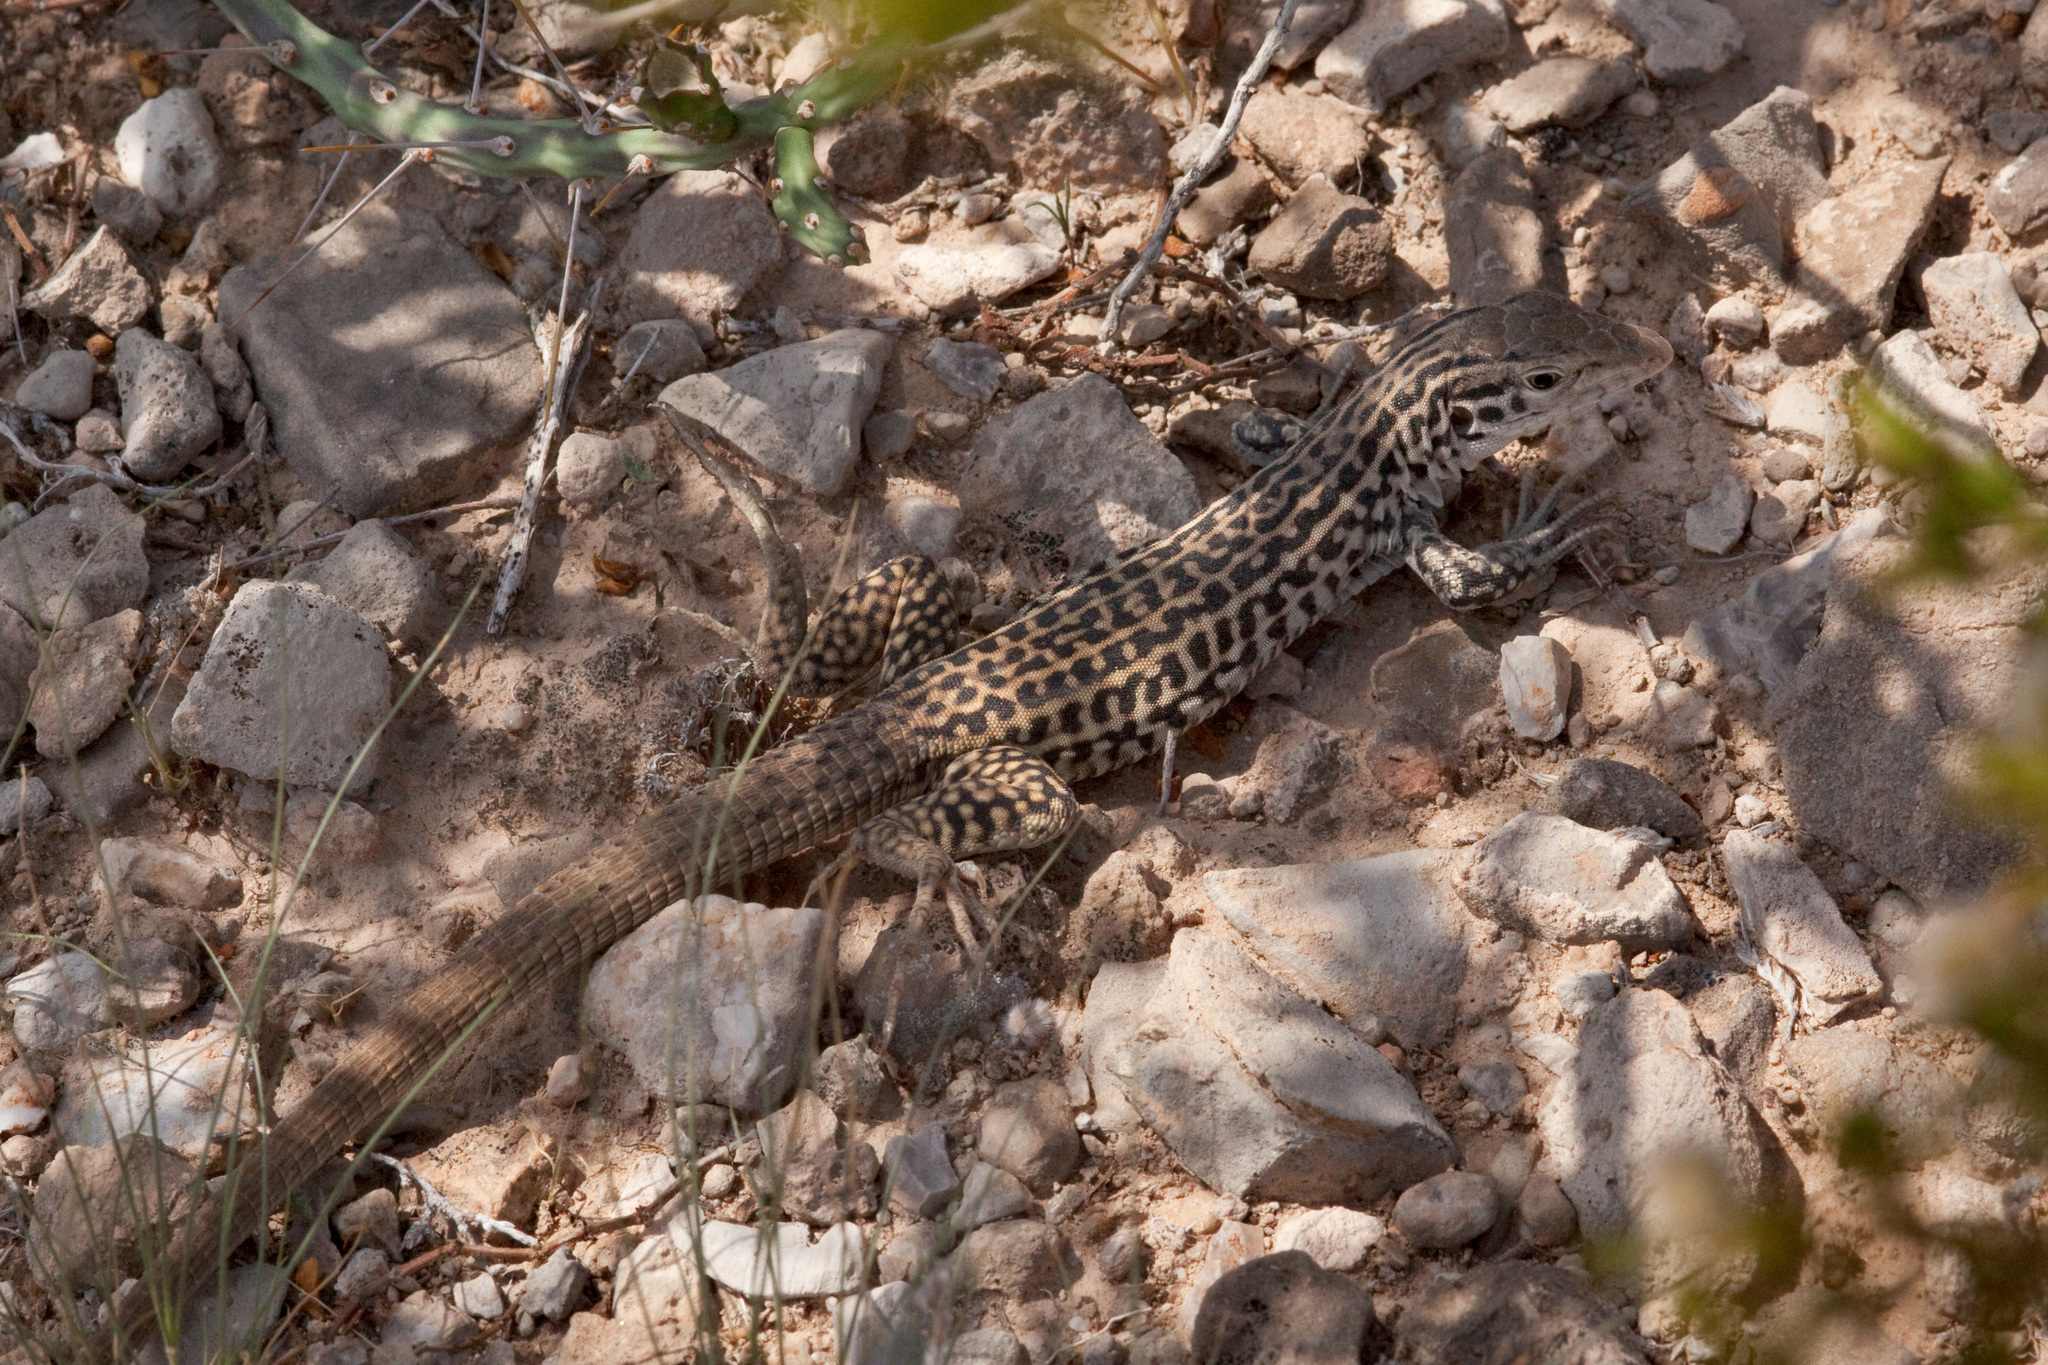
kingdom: Animalia
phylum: Chordata
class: Squamata
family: Teiidae
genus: Aspidoscelis
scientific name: Aspidoscelis tesselatus
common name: Common checkered whiptail [tesselata]
